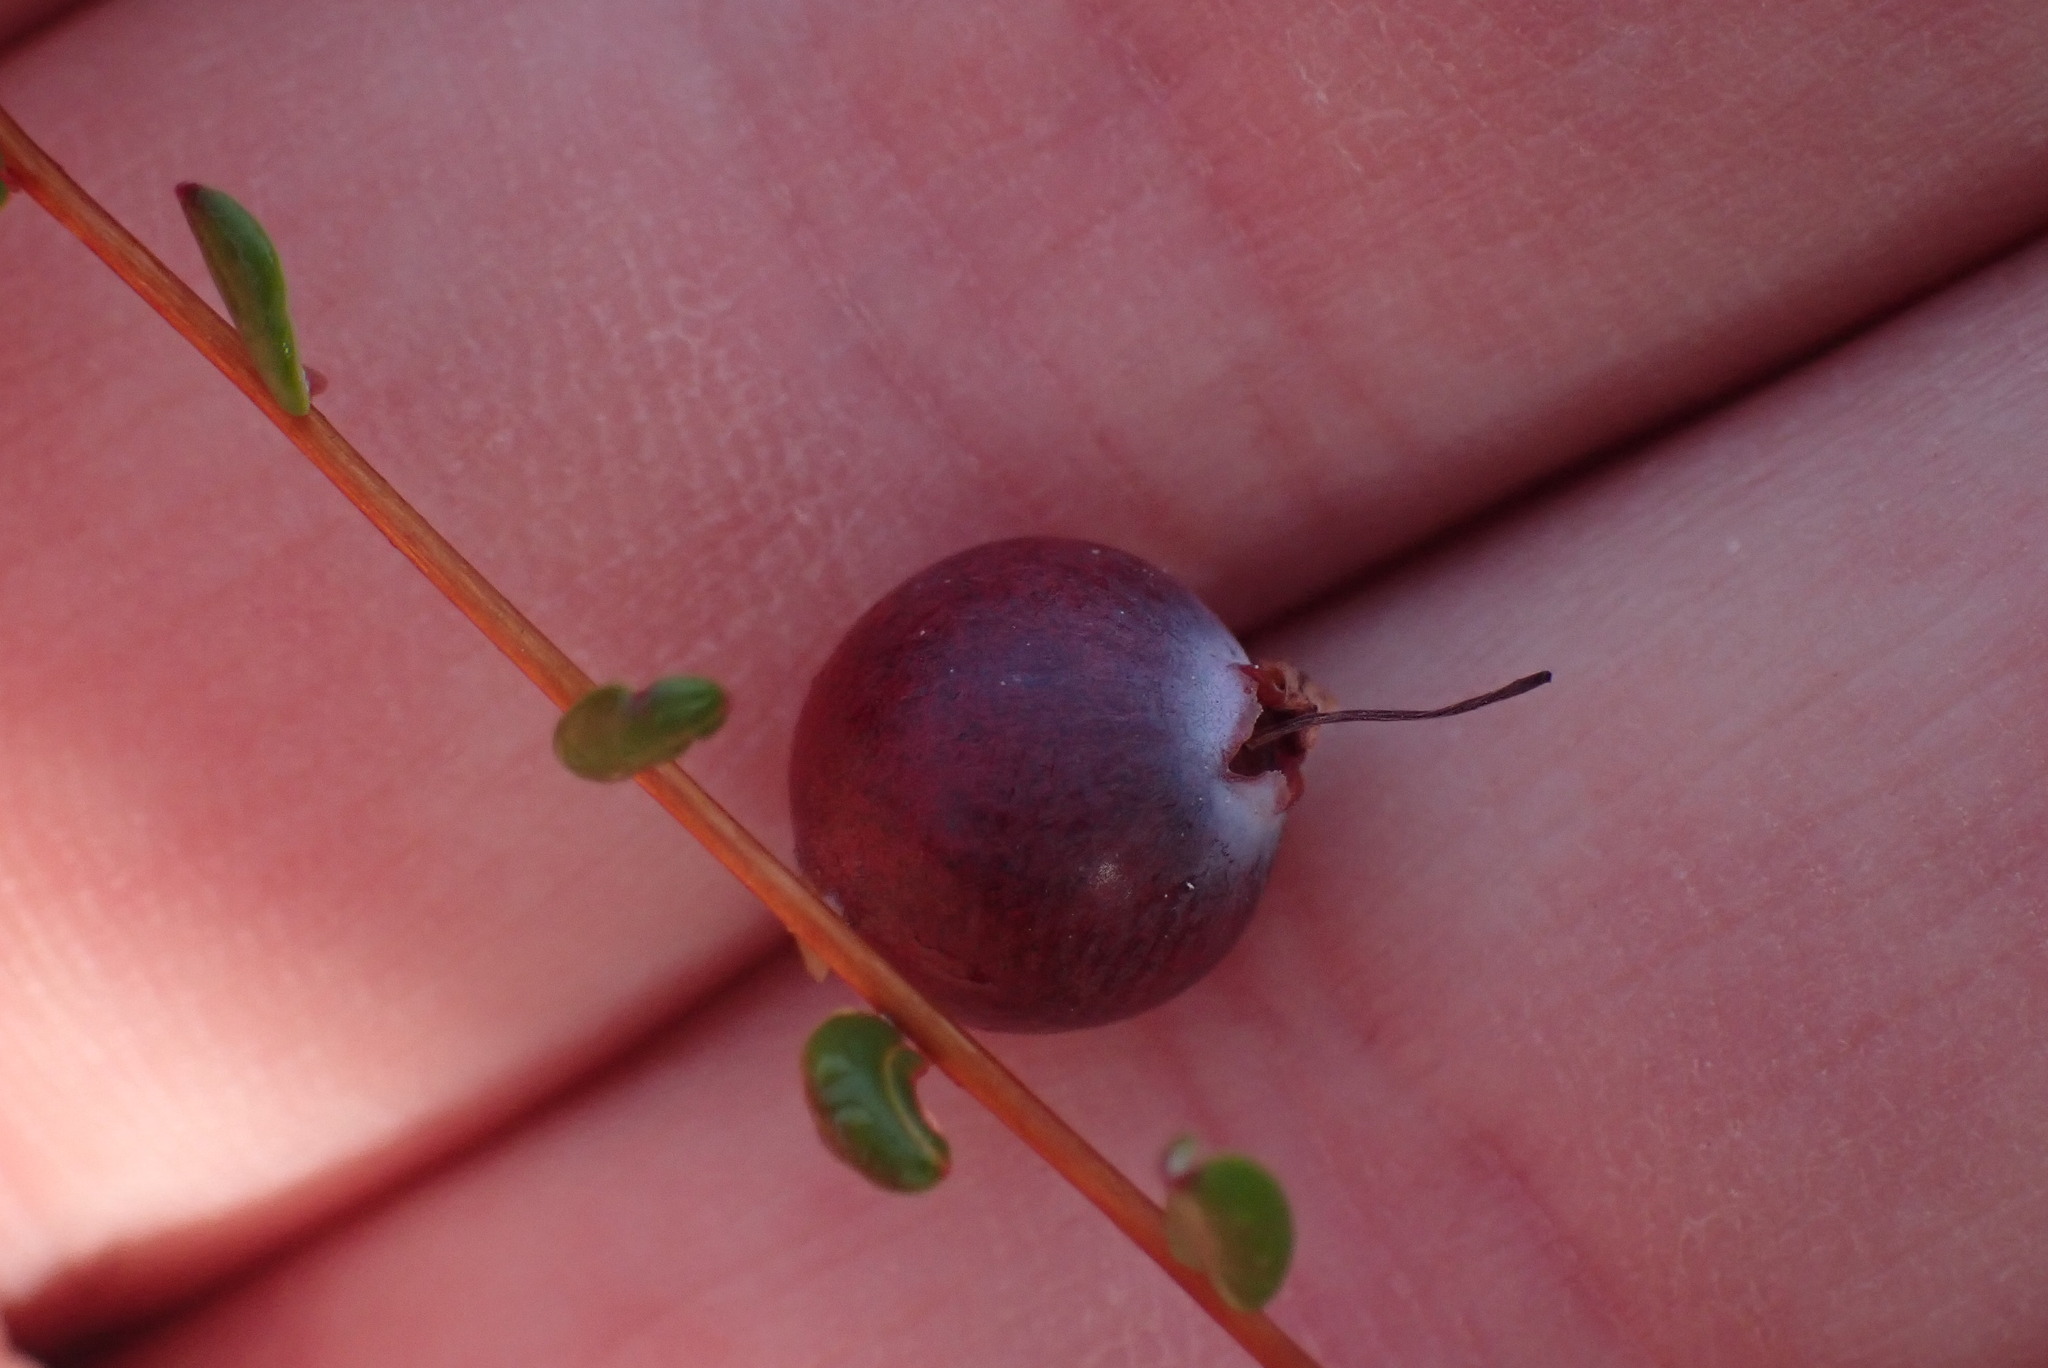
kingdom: Plantae
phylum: Tracheophyta
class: Magnoliopsida
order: Ericales
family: Ericaceae
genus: Vaccinium
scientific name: Vaccinium oxycoccos
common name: Cranberry
